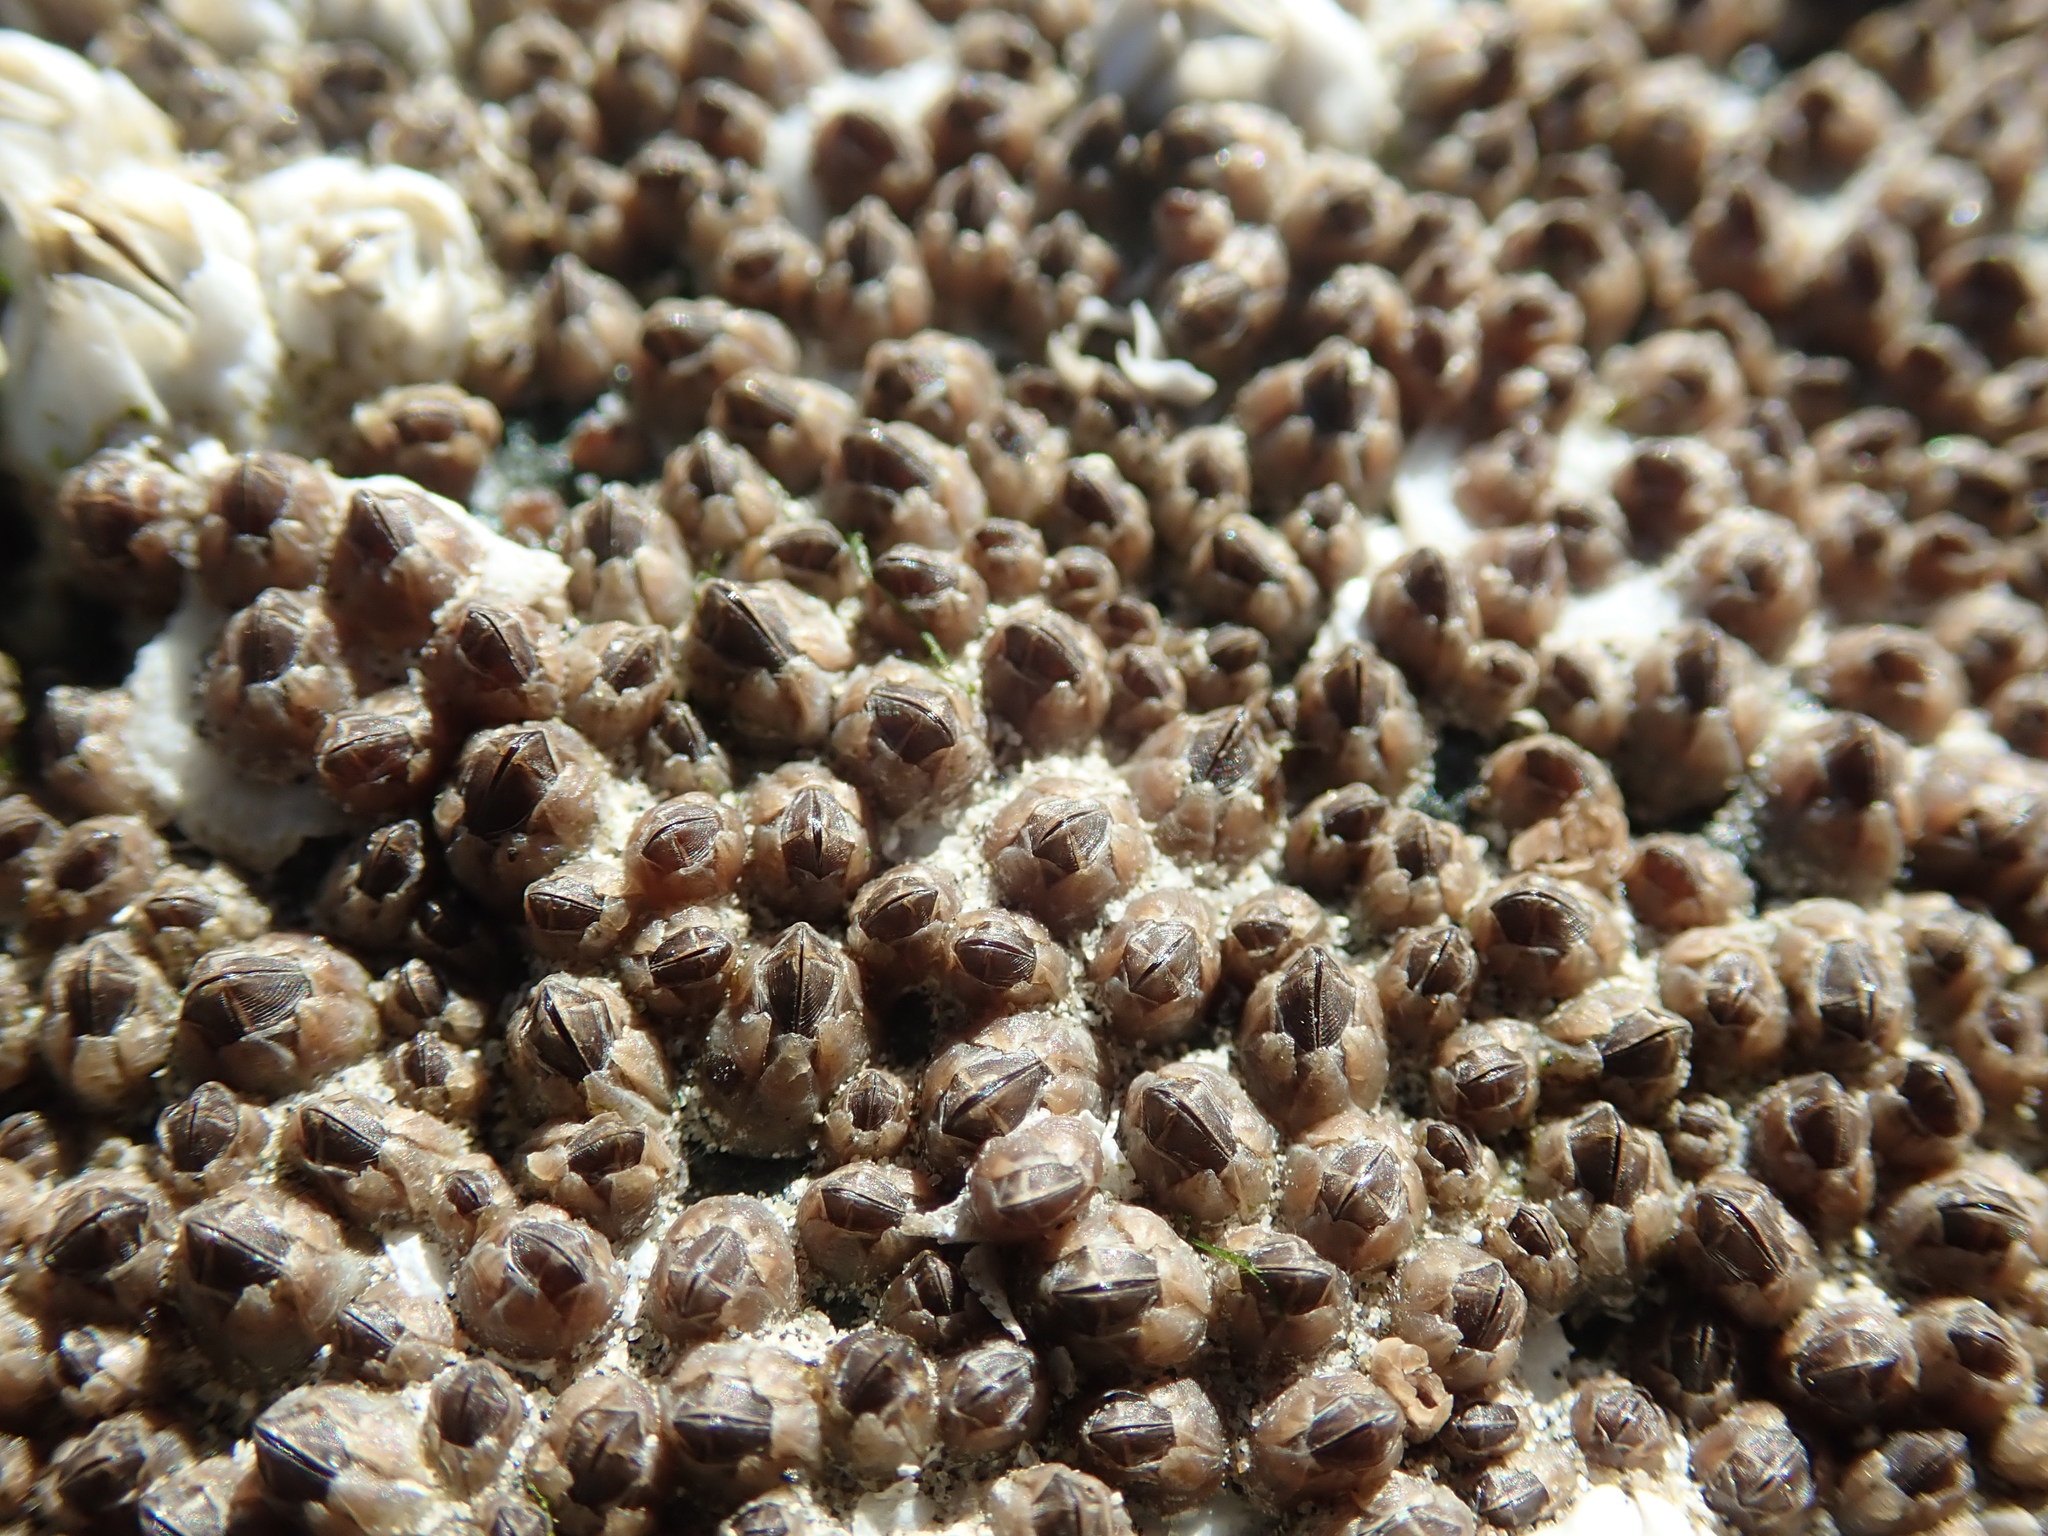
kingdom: Animalia
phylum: Arthropoda
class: Maxillopoda
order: Sessilia
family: Chthamalidae
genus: Chthamalus
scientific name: Chthamalus dalli
